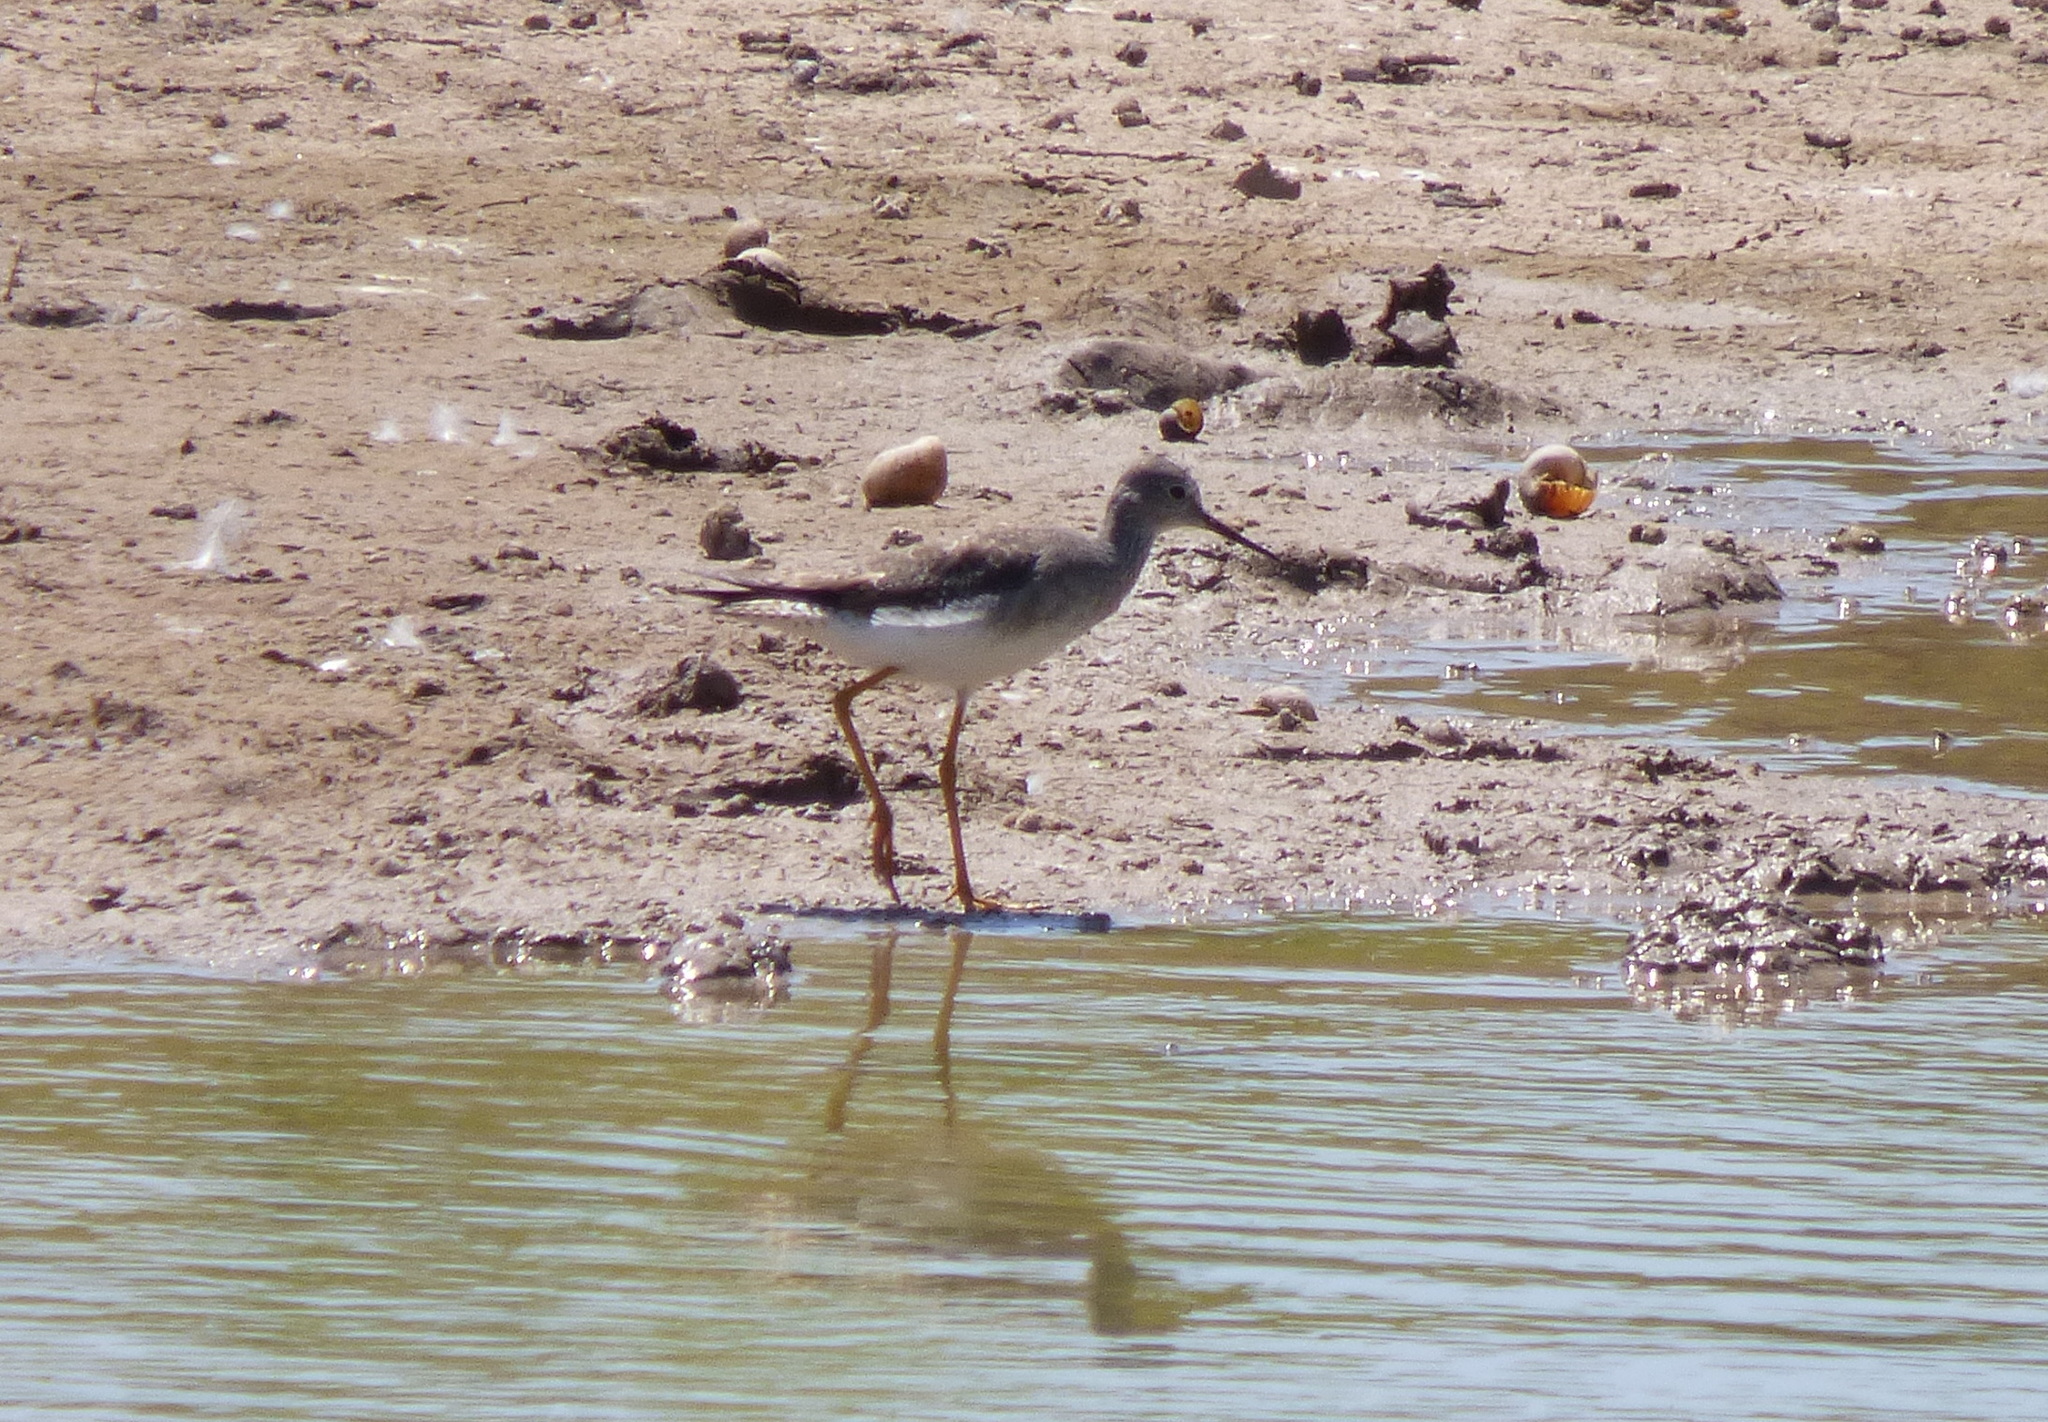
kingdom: Animalia
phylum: Chordata
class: Aves
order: Charadriiformes
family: Scolopacidae
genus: Tringa
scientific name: Tringa flavipes
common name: Lesser yellowlegs
